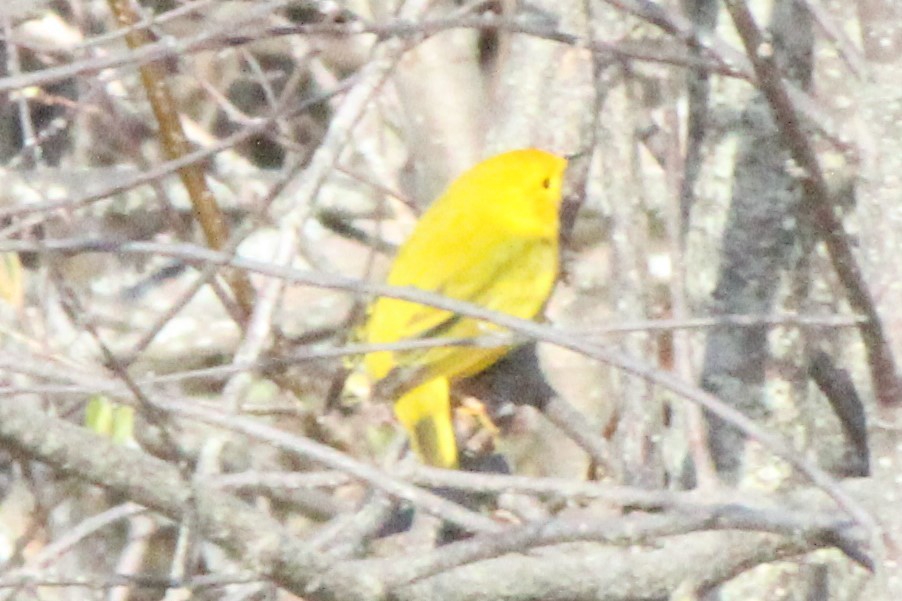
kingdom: Animalia
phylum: Chordata
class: Aves
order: Passeriformes
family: Parulidae
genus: Setophaga
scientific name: Setophaga petechia
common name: Yellow warbler
